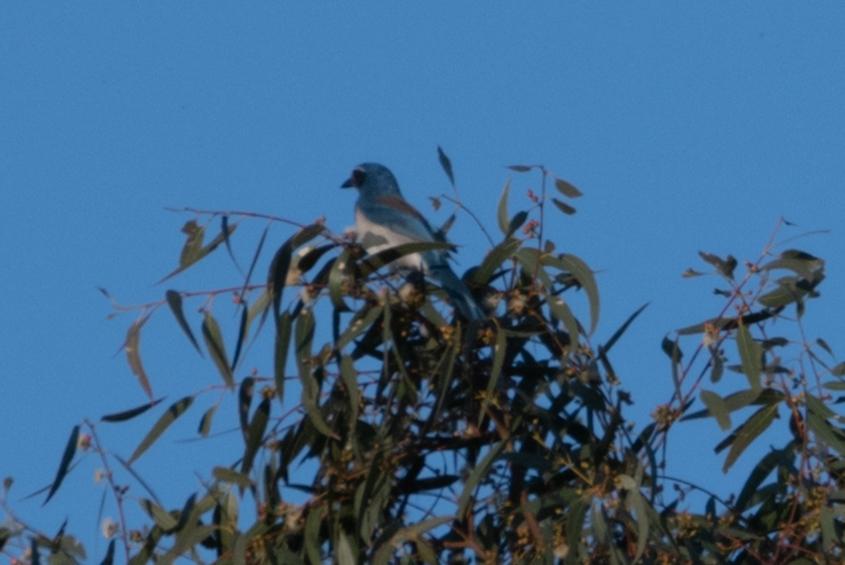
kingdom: Animalia
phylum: Chordata
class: Aves
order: Passeriformes
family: Corvidae
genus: Aphelocoma
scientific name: Aphelocoma californica
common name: California scrub-jay
